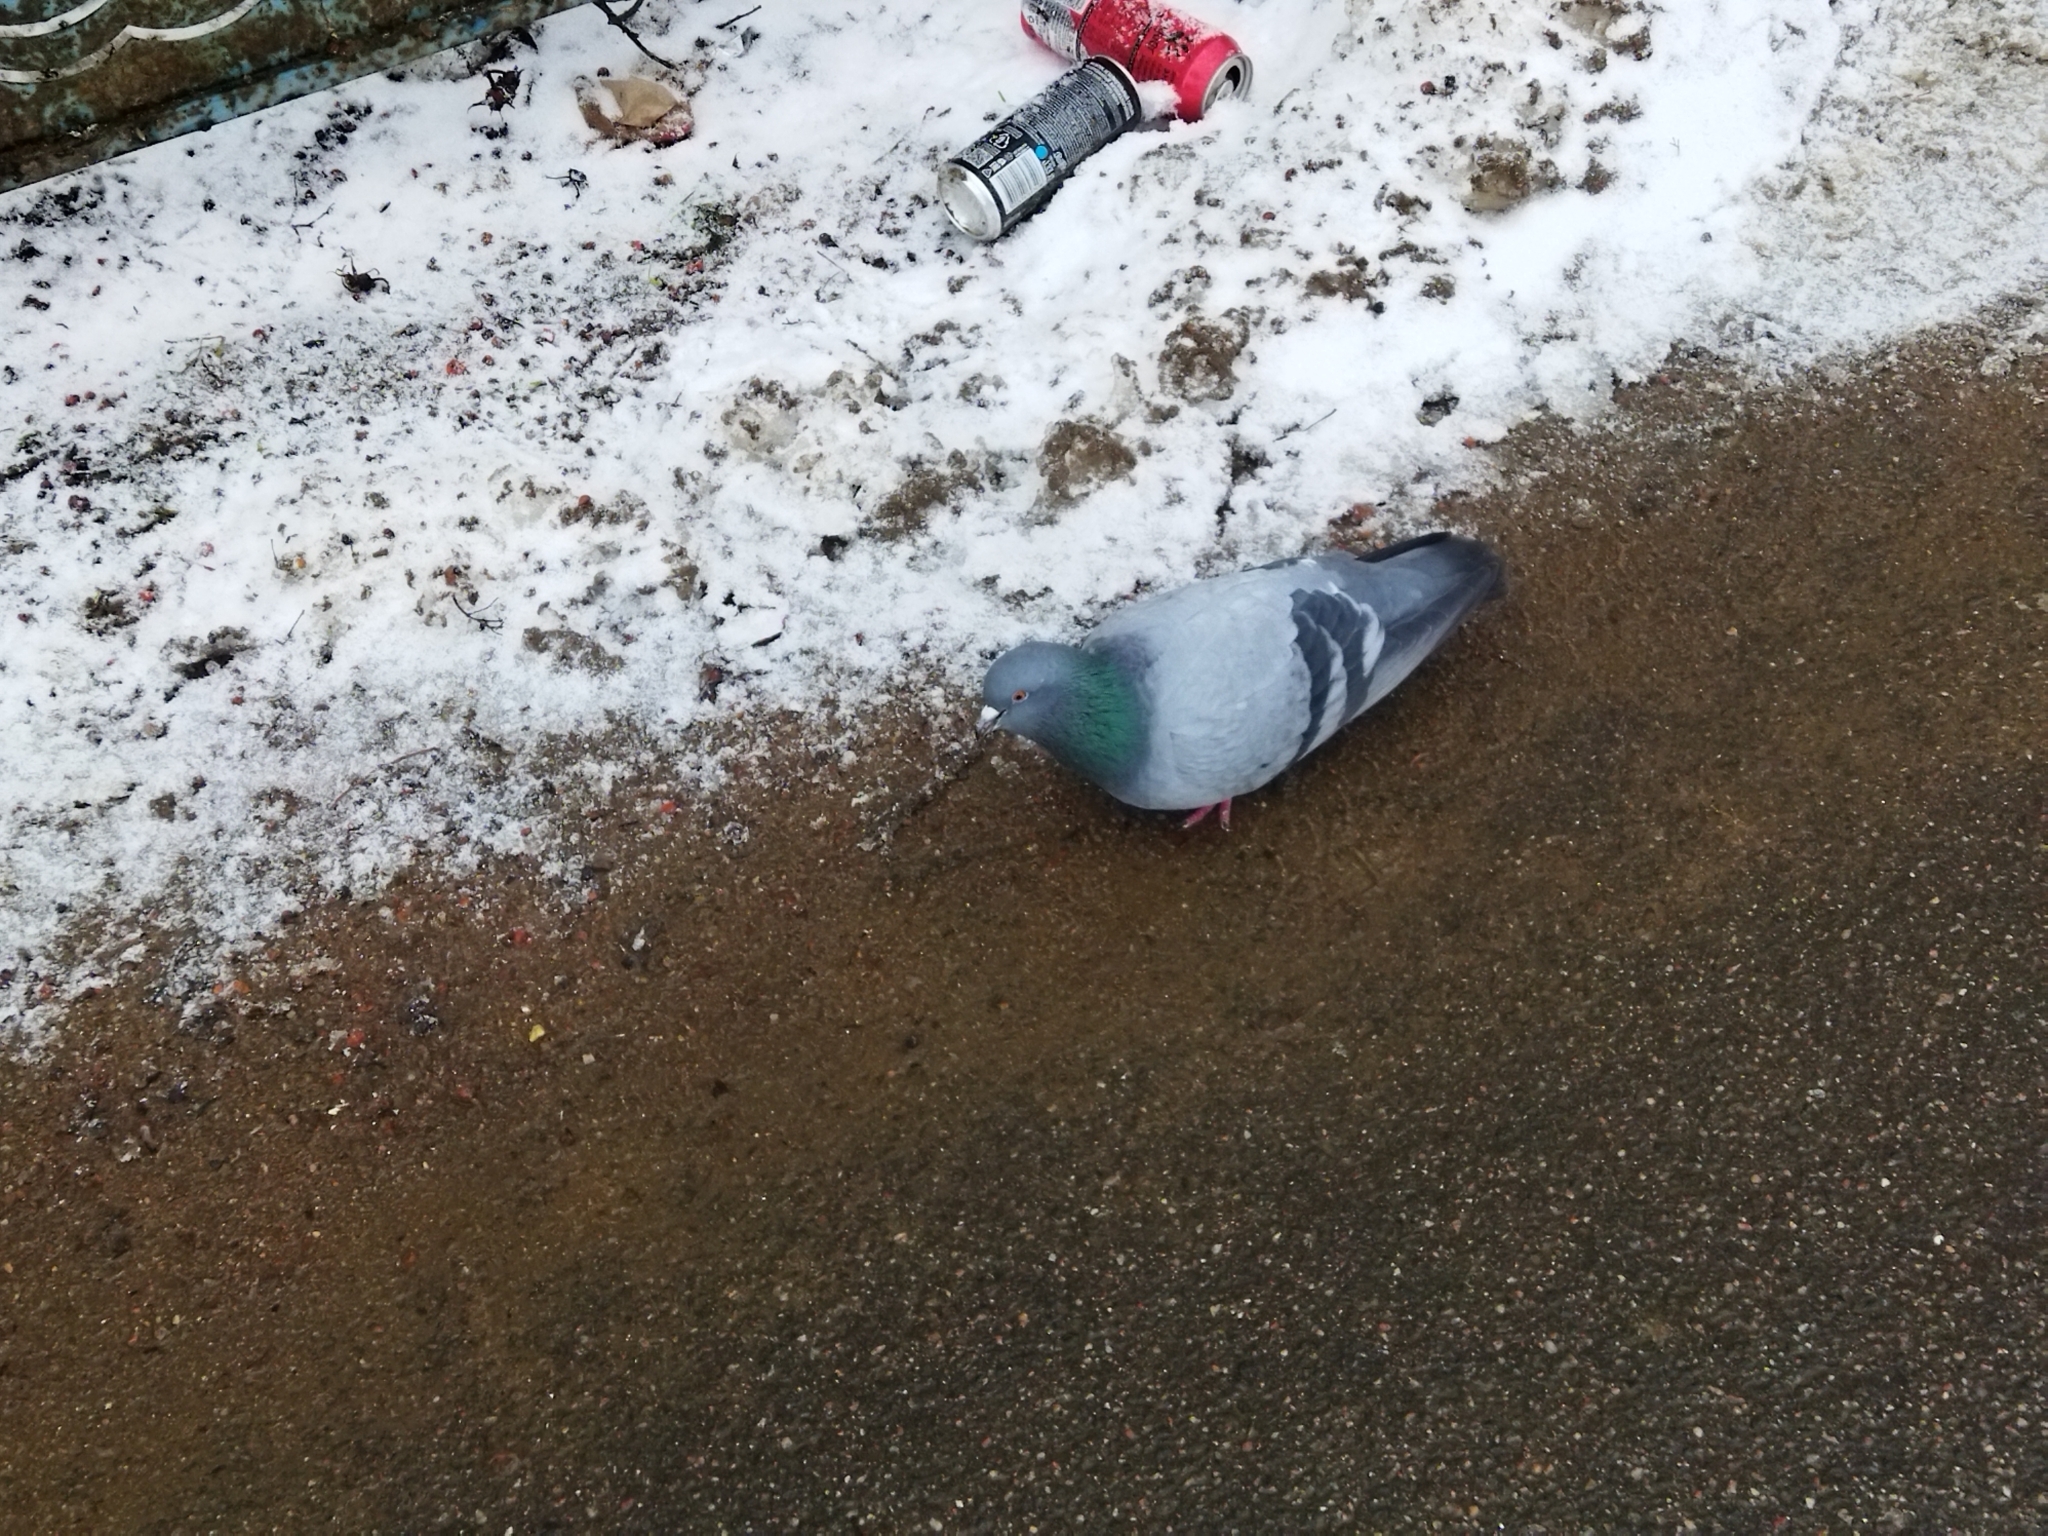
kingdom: Animalia
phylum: Chordata
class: Aves
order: Columbiformes
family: Columbidae
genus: Columba
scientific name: Columba livia
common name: Rock pigeon
